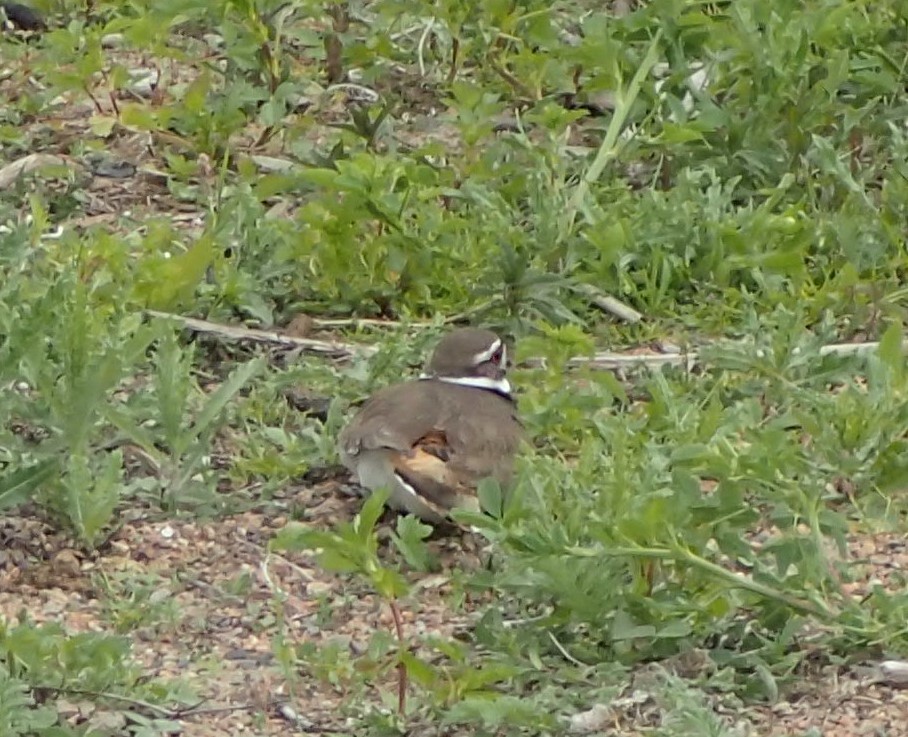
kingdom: Animalia
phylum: Chordata
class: Aves
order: Charadriiformes
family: Charadriidae
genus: Charadrius
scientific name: Charadrius vociferus
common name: Killdeer
